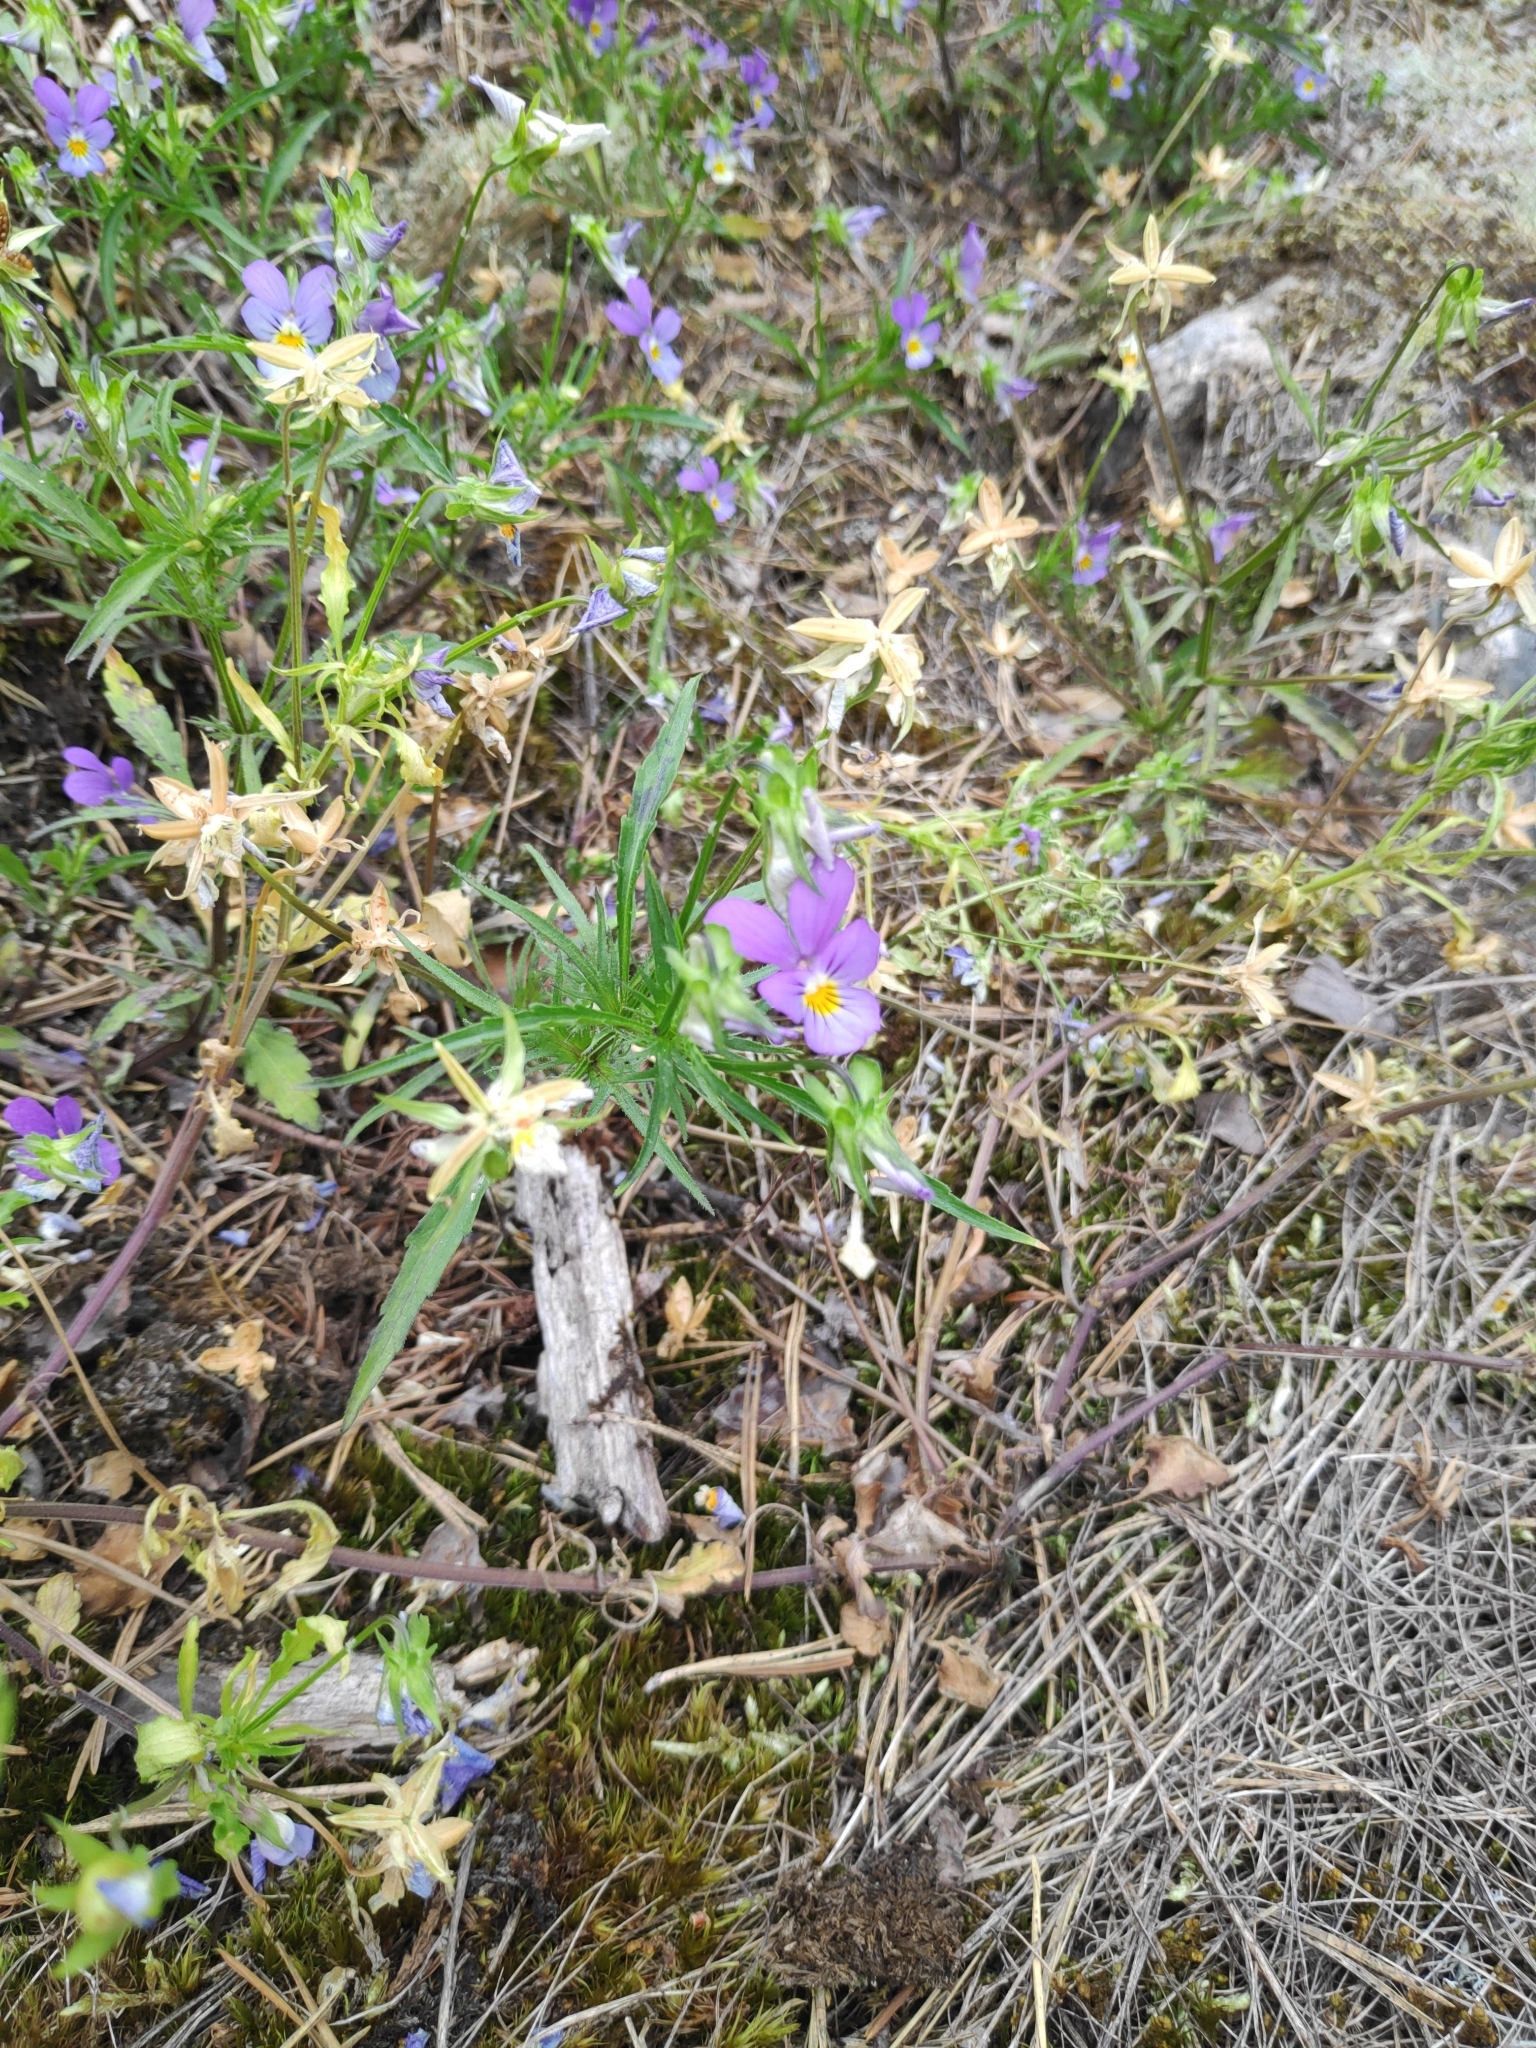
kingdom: Plantae
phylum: Tracheophyta
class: Magnoliopsida
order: Malpighiales
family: Violaceae
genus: Viola
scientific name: Viola tricolor
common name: Pansy
